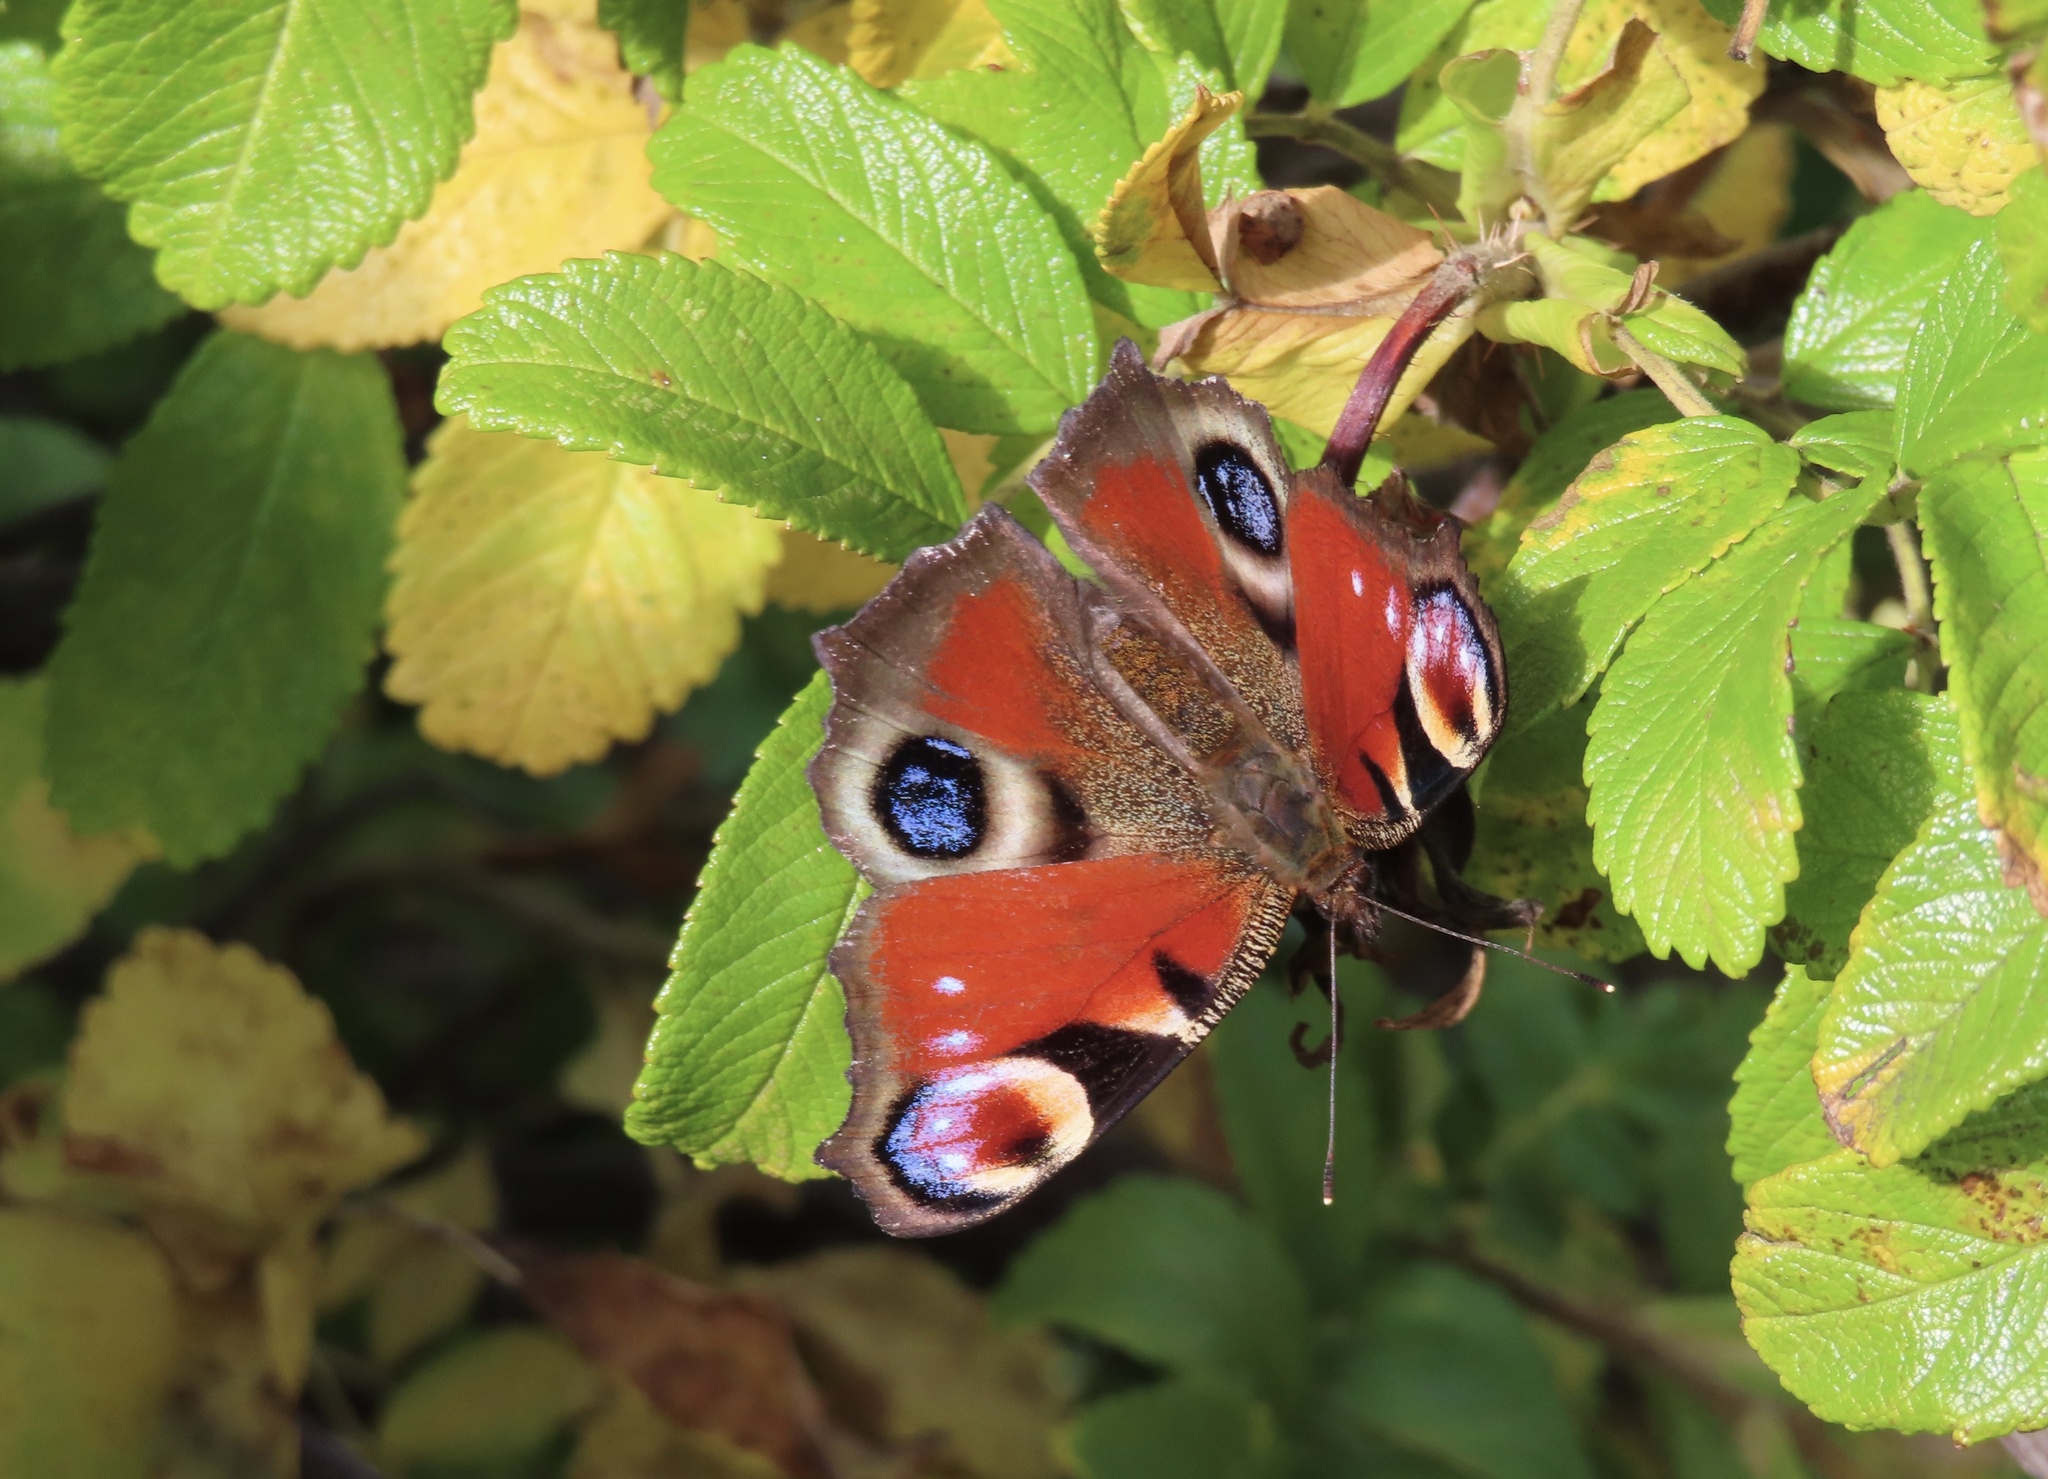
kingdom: Animalia
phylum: Arthropoda
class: Insecta
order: Lepidoptera
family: Nymphalidae
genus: Aglais
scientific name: Aglais io
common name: Peacock
